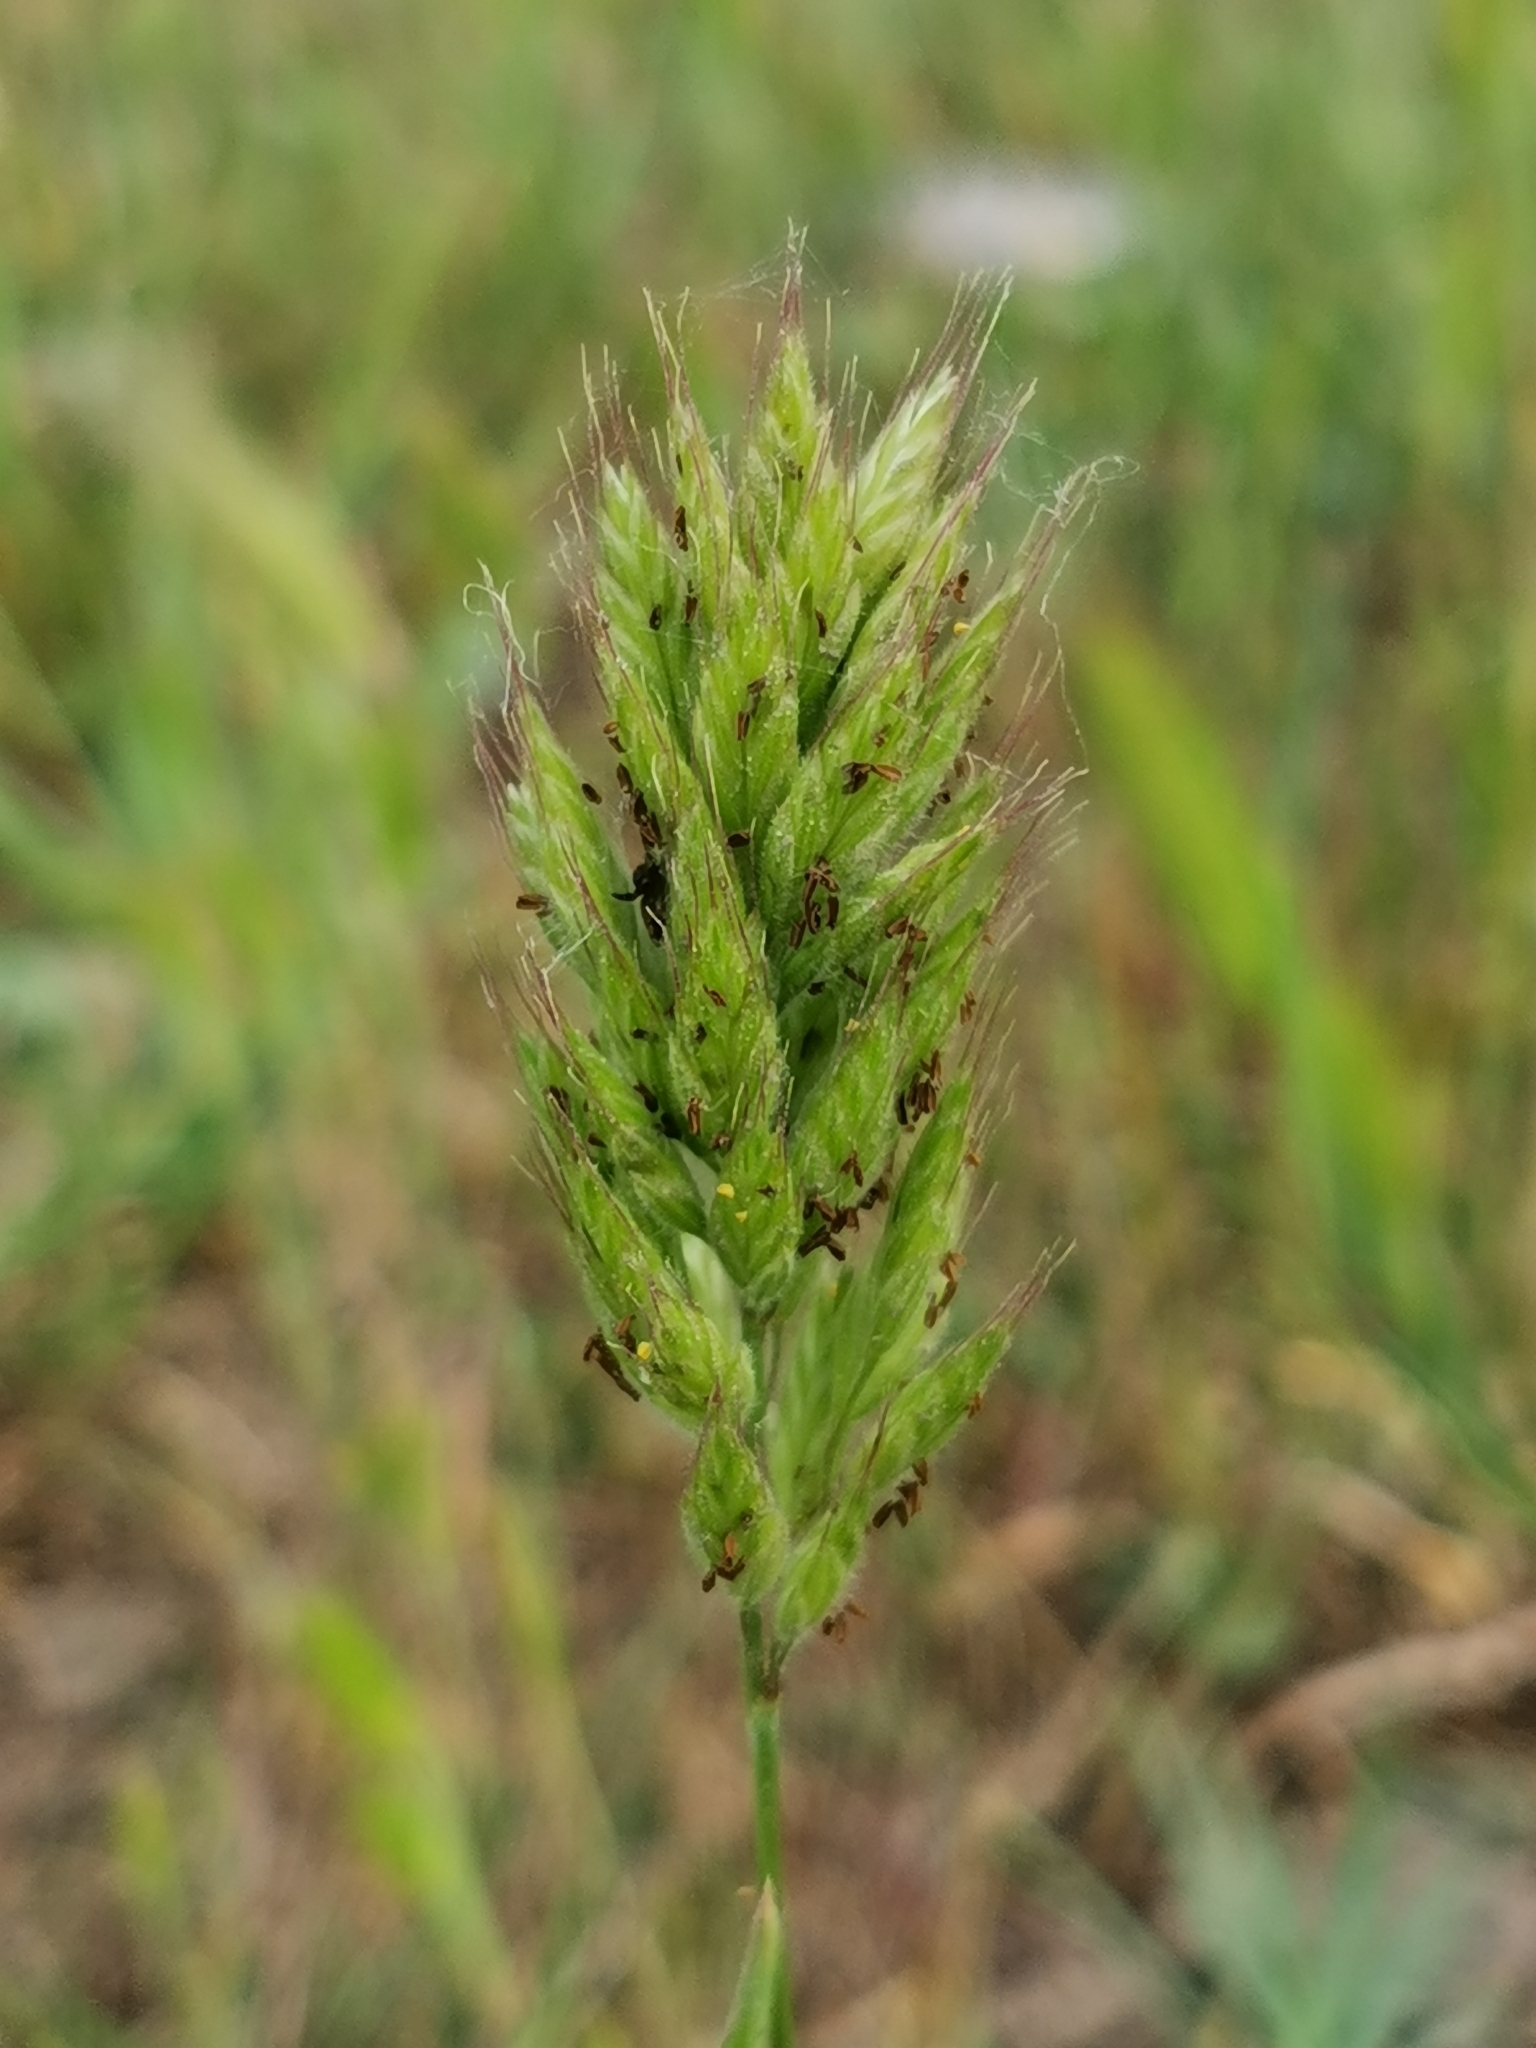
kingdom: Plantae
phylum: Tracheophyta
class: Liliopsida
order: Poales
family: Poaceae
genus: Bromus
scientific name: Bromus hordeaceus
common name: Soft brome
